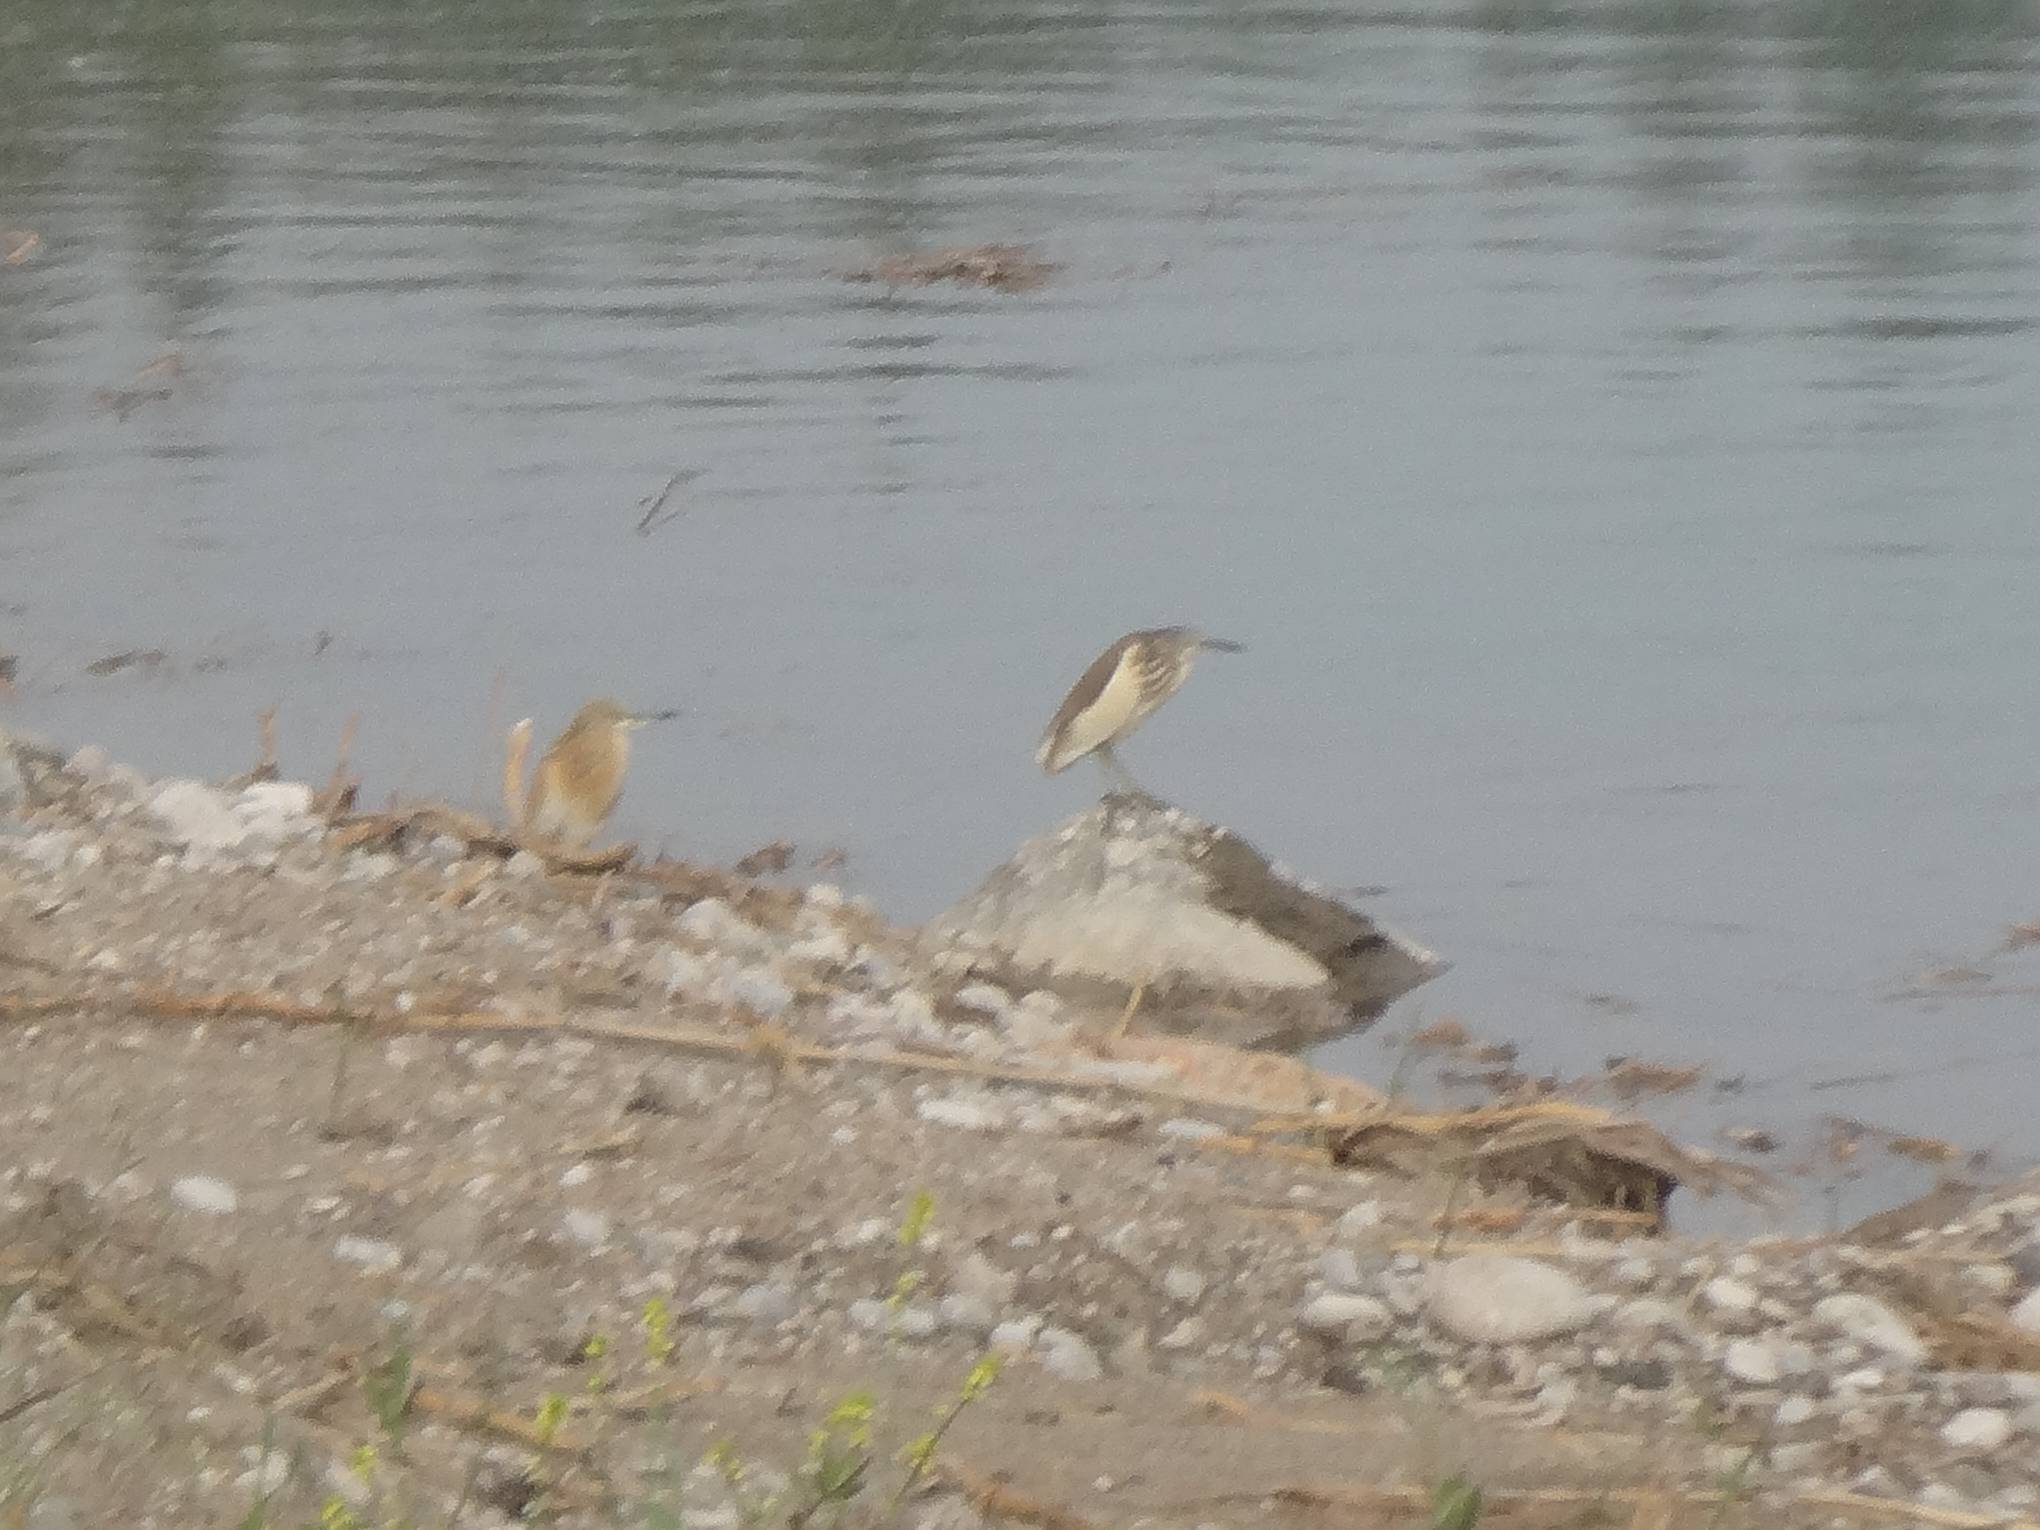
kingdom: Animalia
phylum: Chordata
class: Aves
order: Pelecaniformes
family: Ardeidae
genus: Ardeola
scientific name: Ardeola ralloides
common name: Squacco heron
